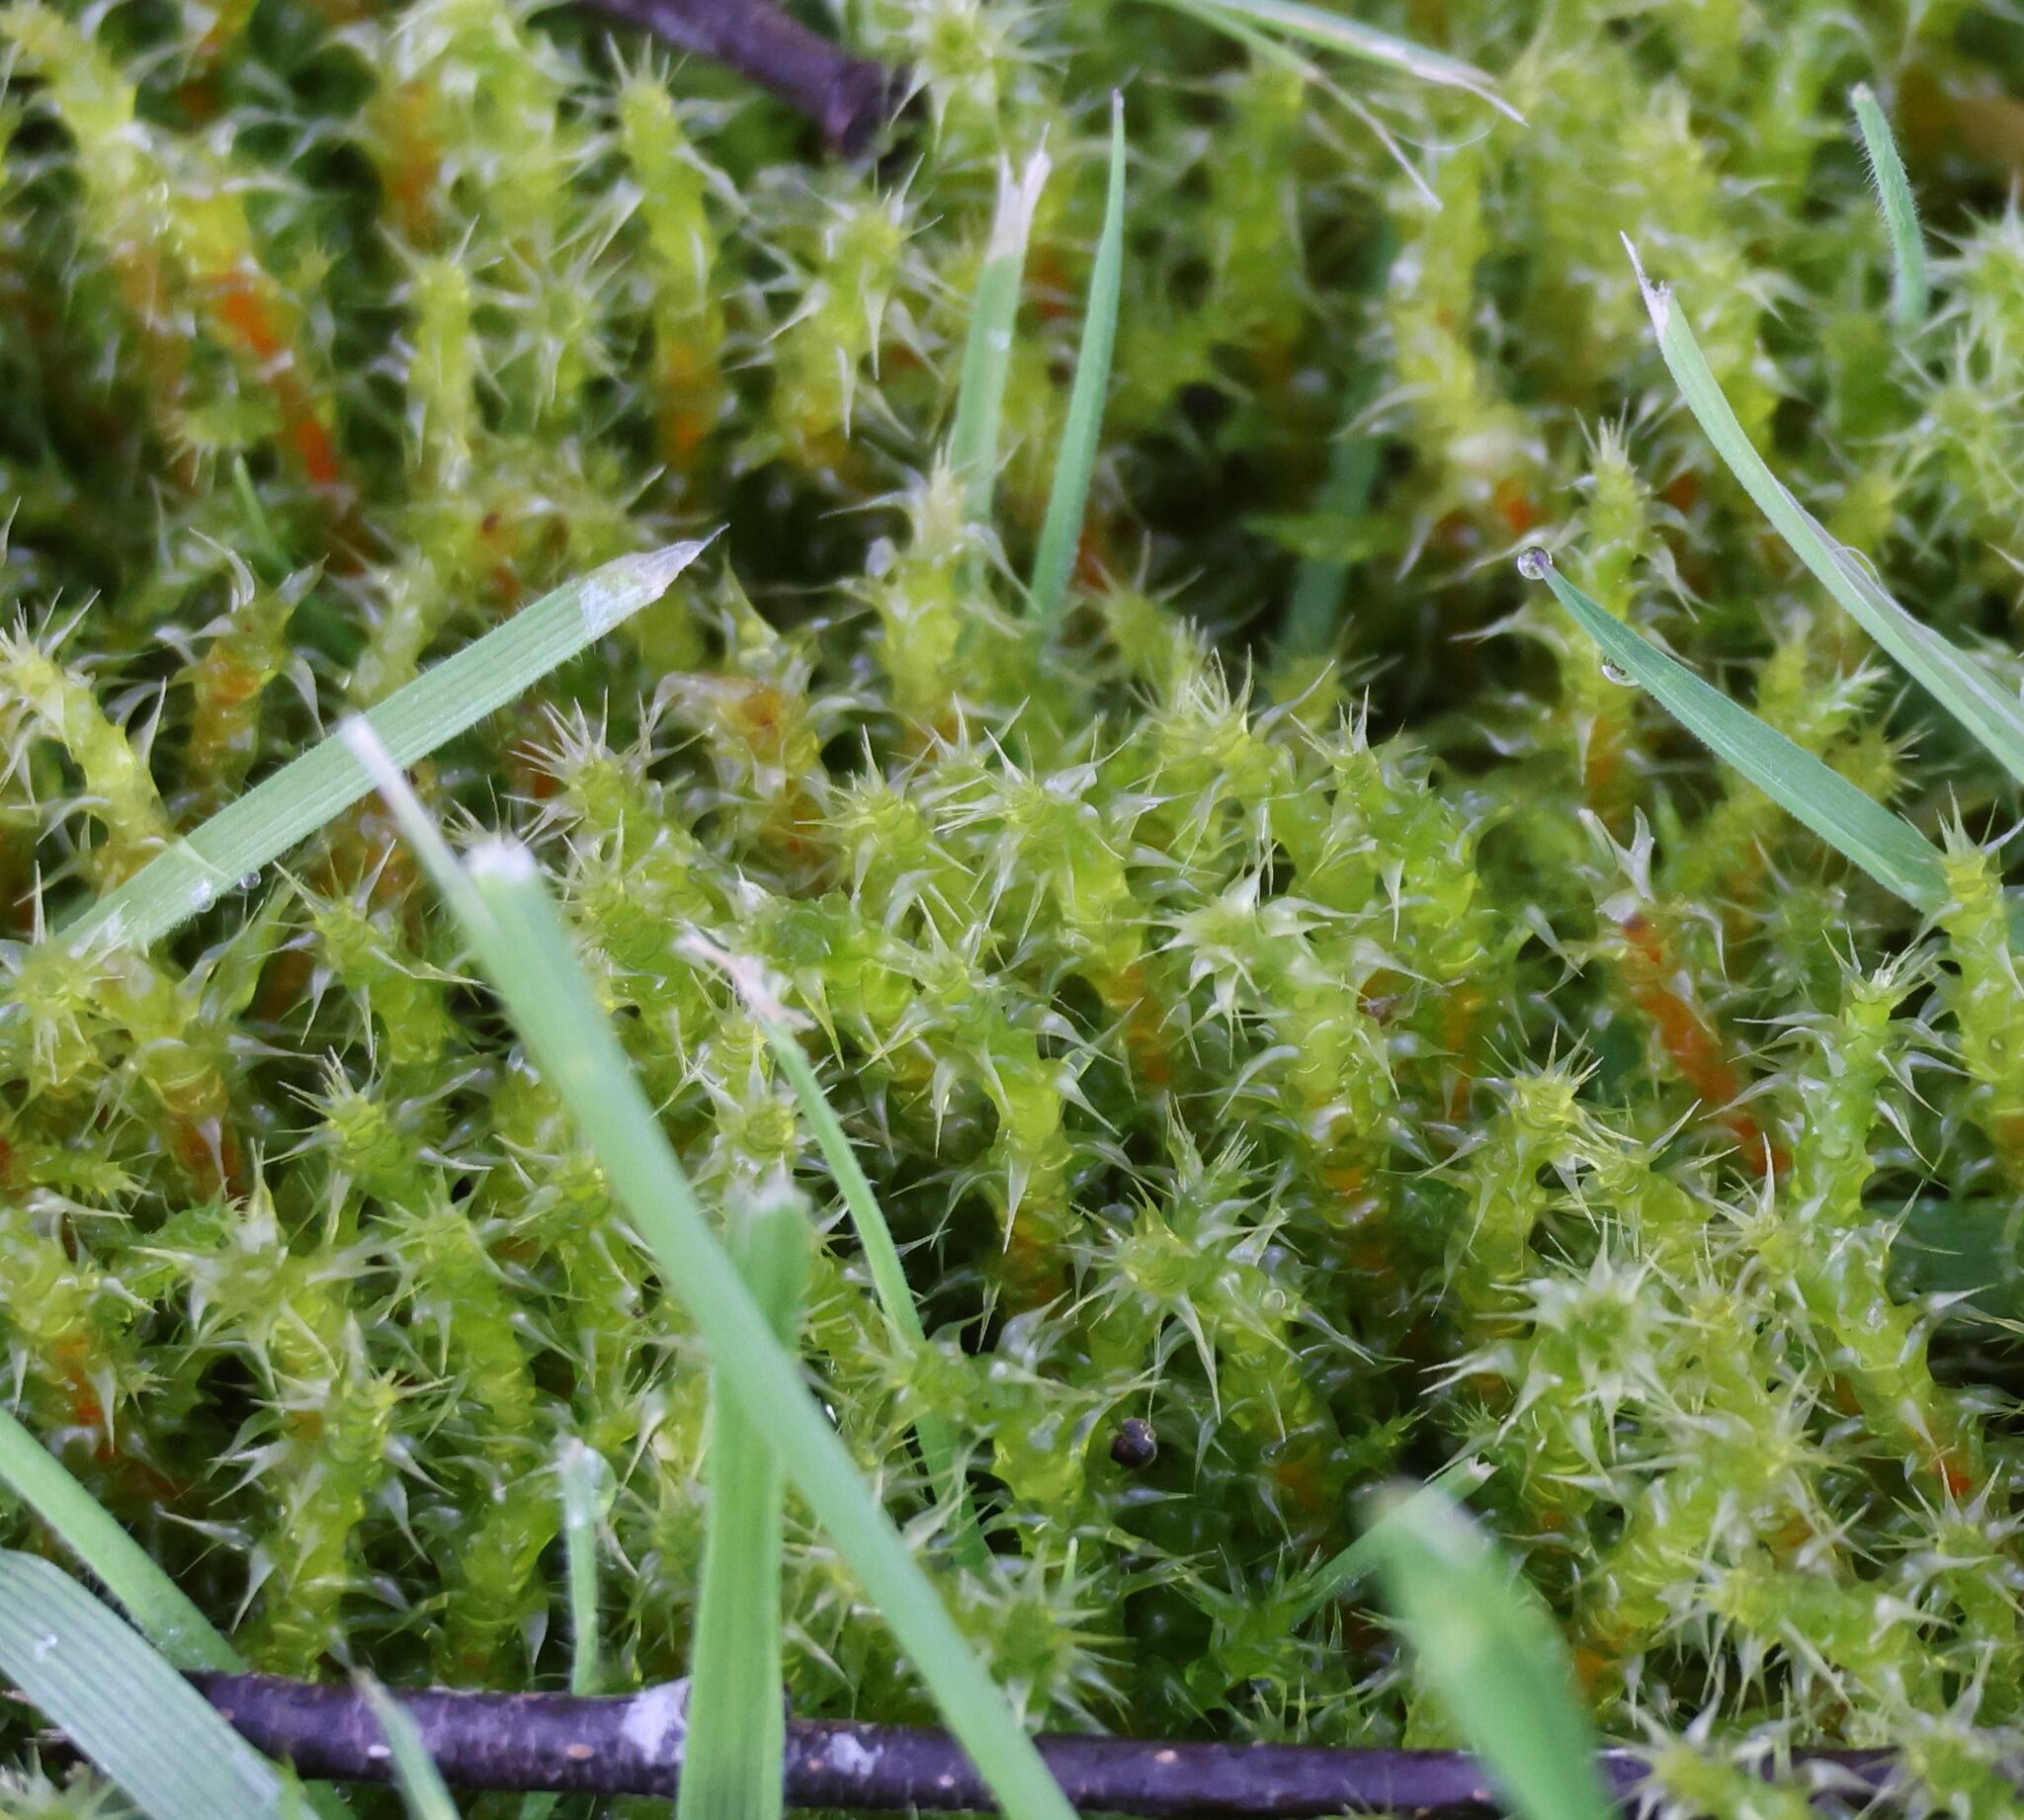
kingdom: Plantae
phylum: Bryophyta
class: Bryopsida
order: Hypnales
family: Hylocomiaceae
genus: Rhytidiadelphus
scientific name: Rhytidiadelphus squarrosus
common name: Springy turf-moss
